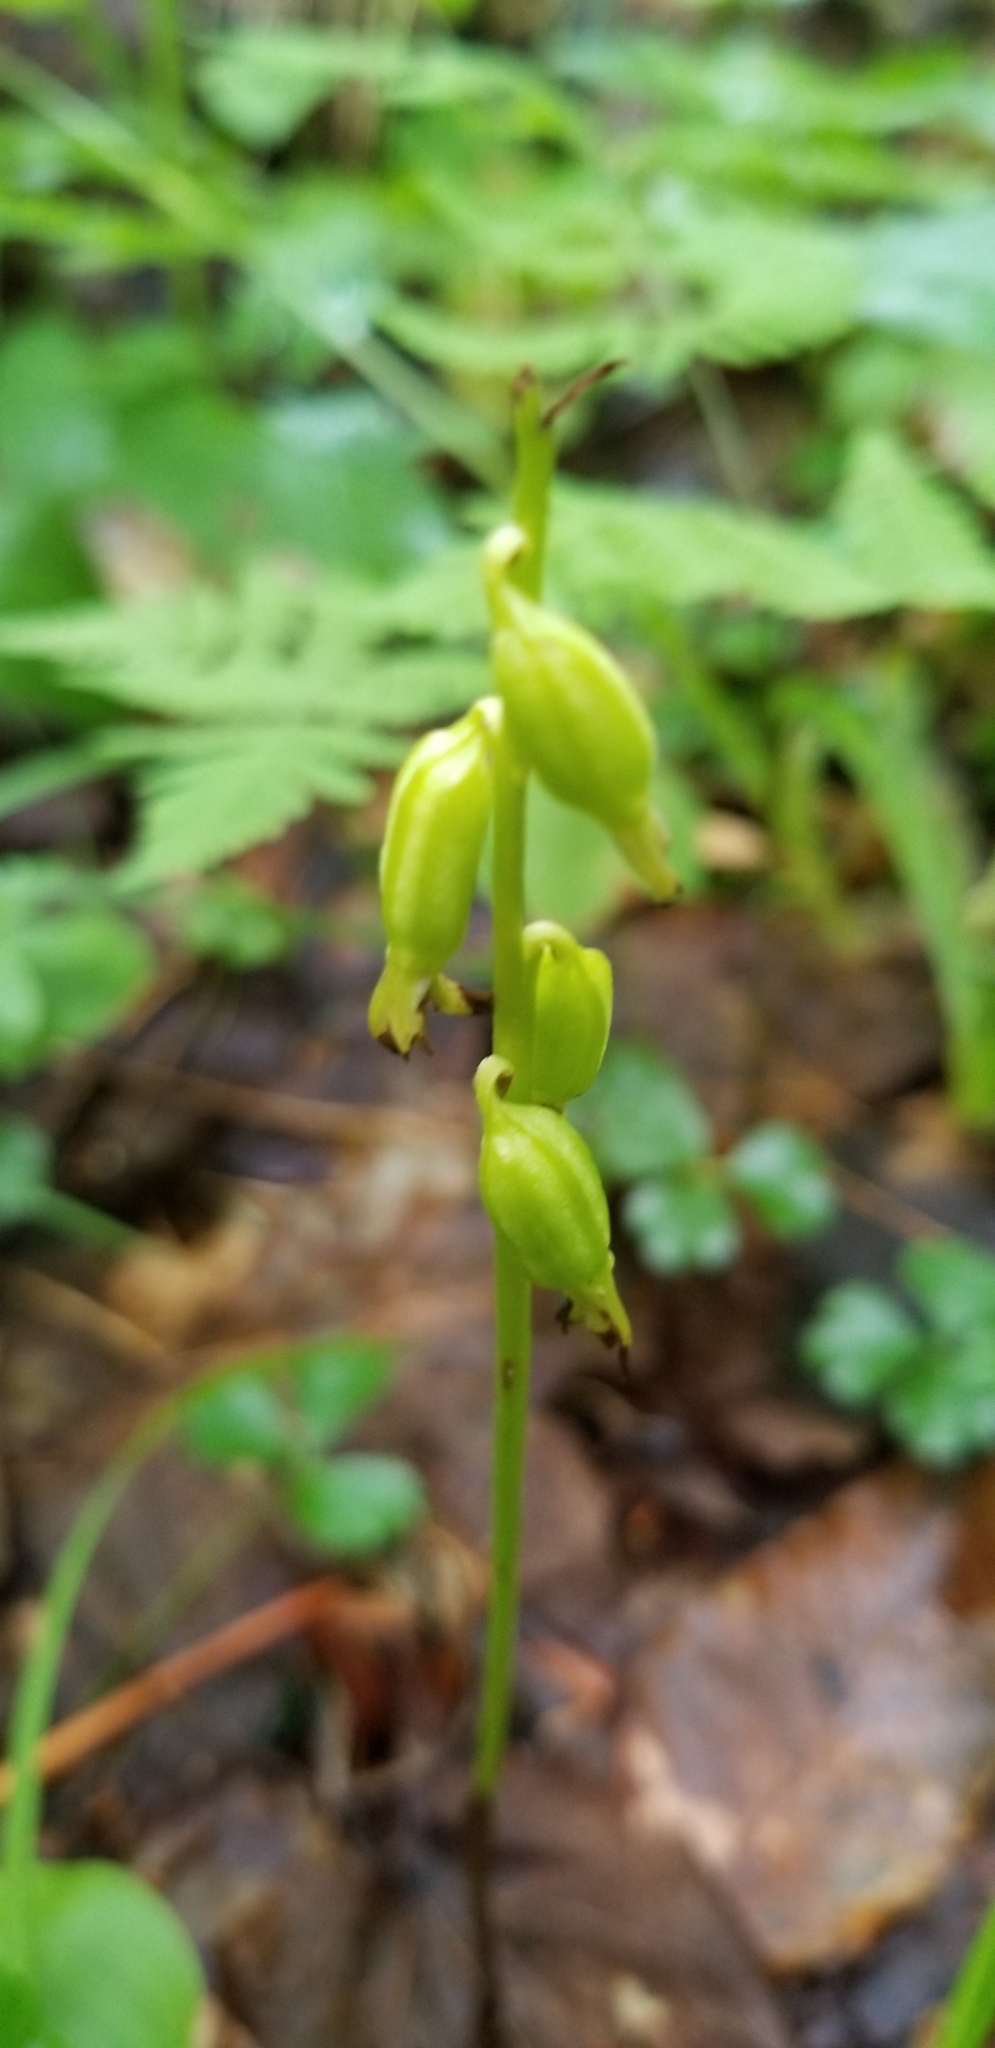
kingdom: Plantae
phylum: Tracheophyta
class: Liliopsida
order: Asparagales
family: Orchidaceae
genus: Corallorhiza
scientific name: Corallorhiza trifida
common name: Yellow coralroot
